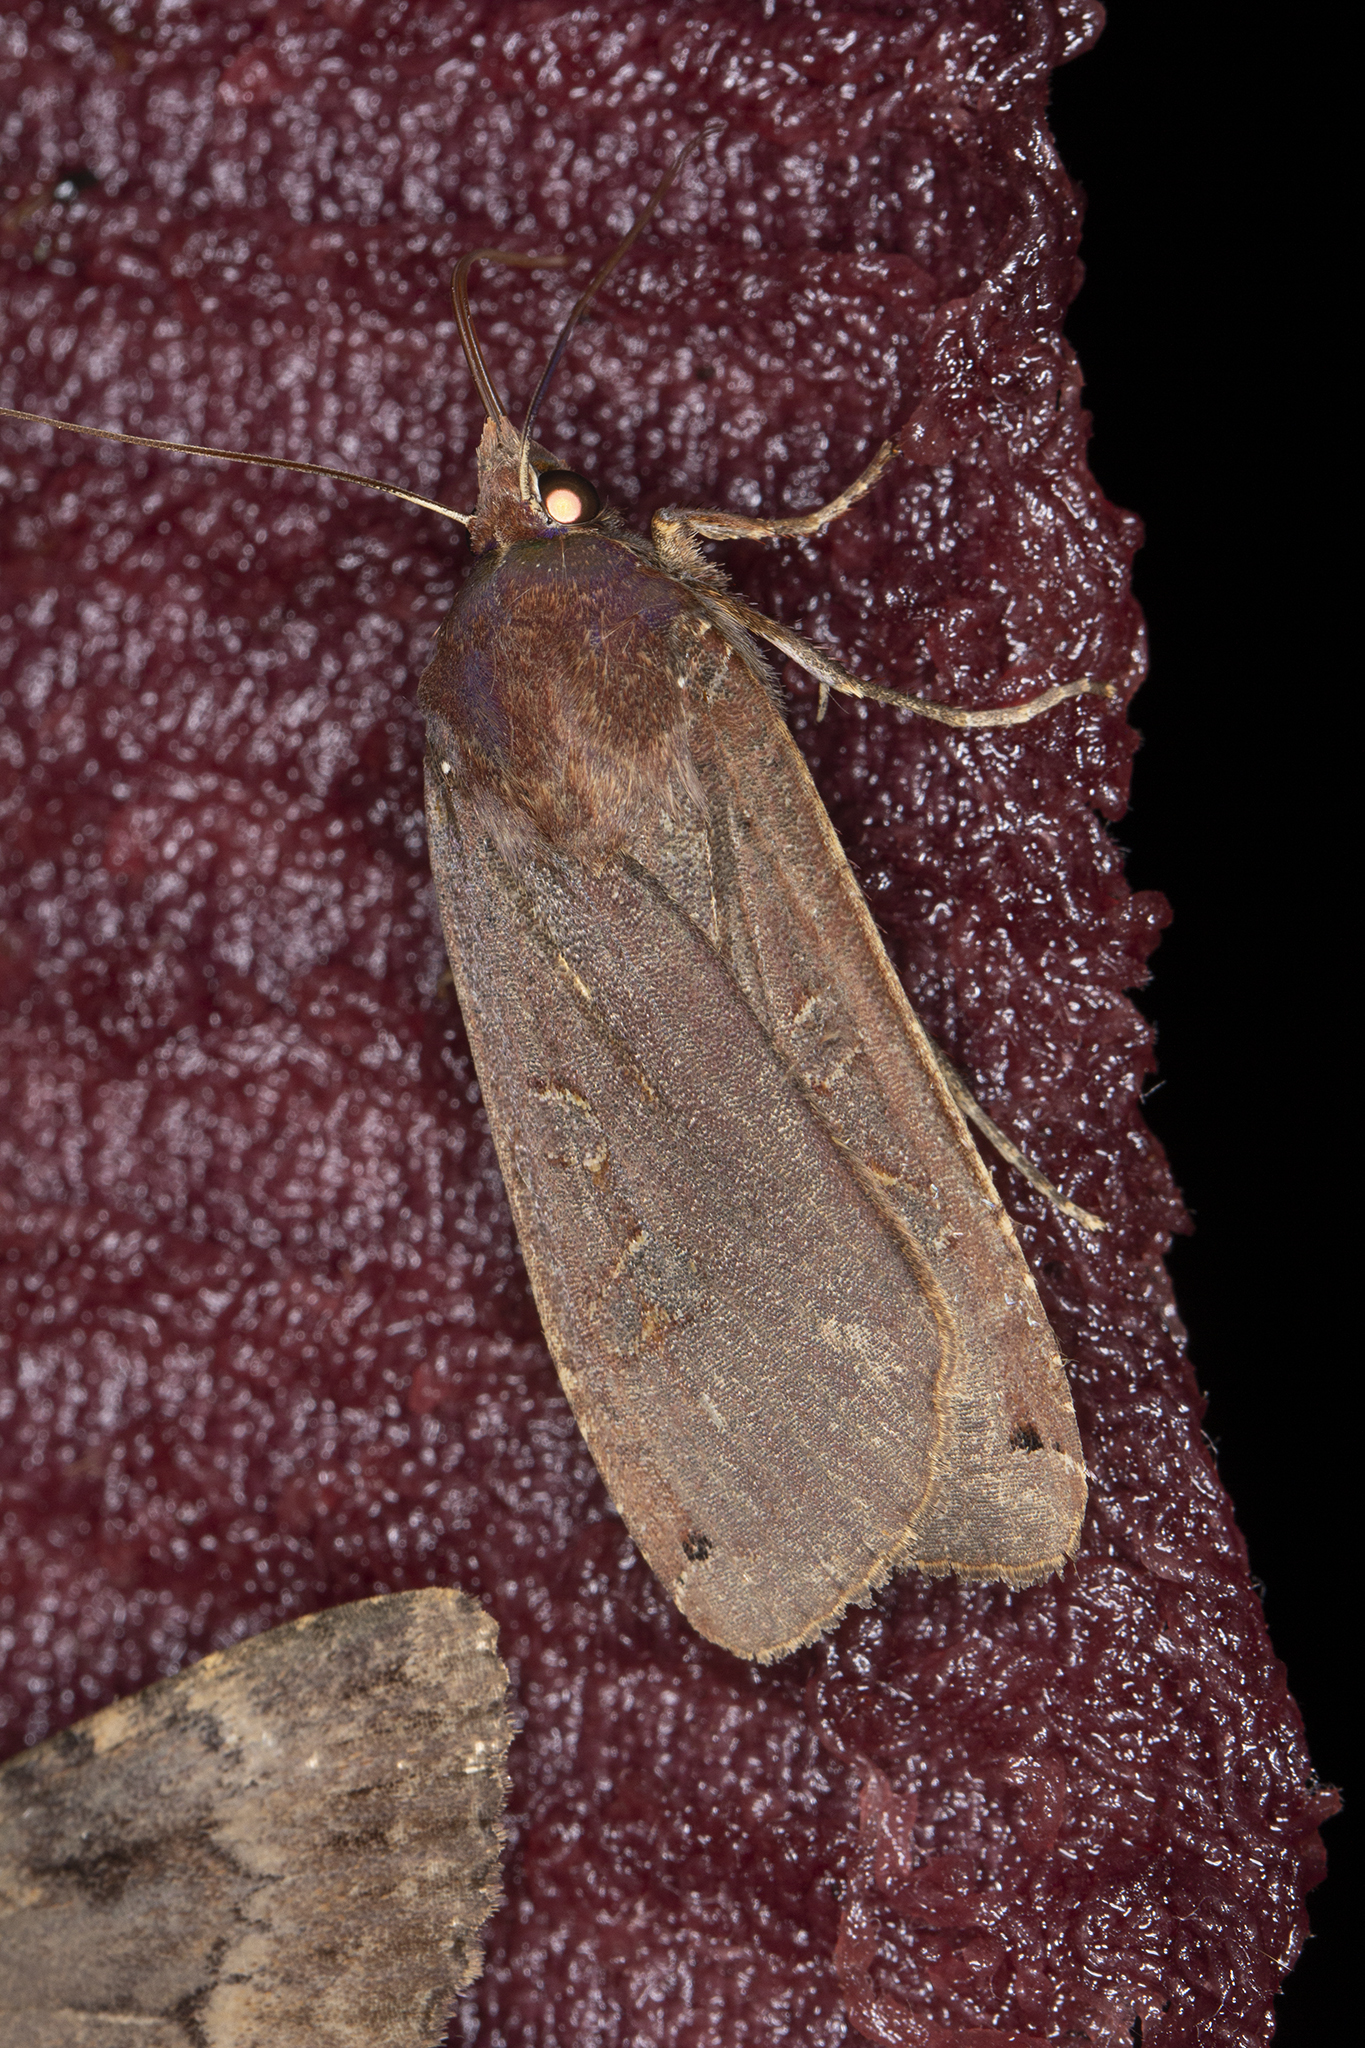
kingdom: Animalia
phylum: Arthropoda
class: Insecta
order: Lepidoptera
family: Noctuidae
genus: Noctua
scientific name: Noctua pronuba
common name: Large yellow underwing
